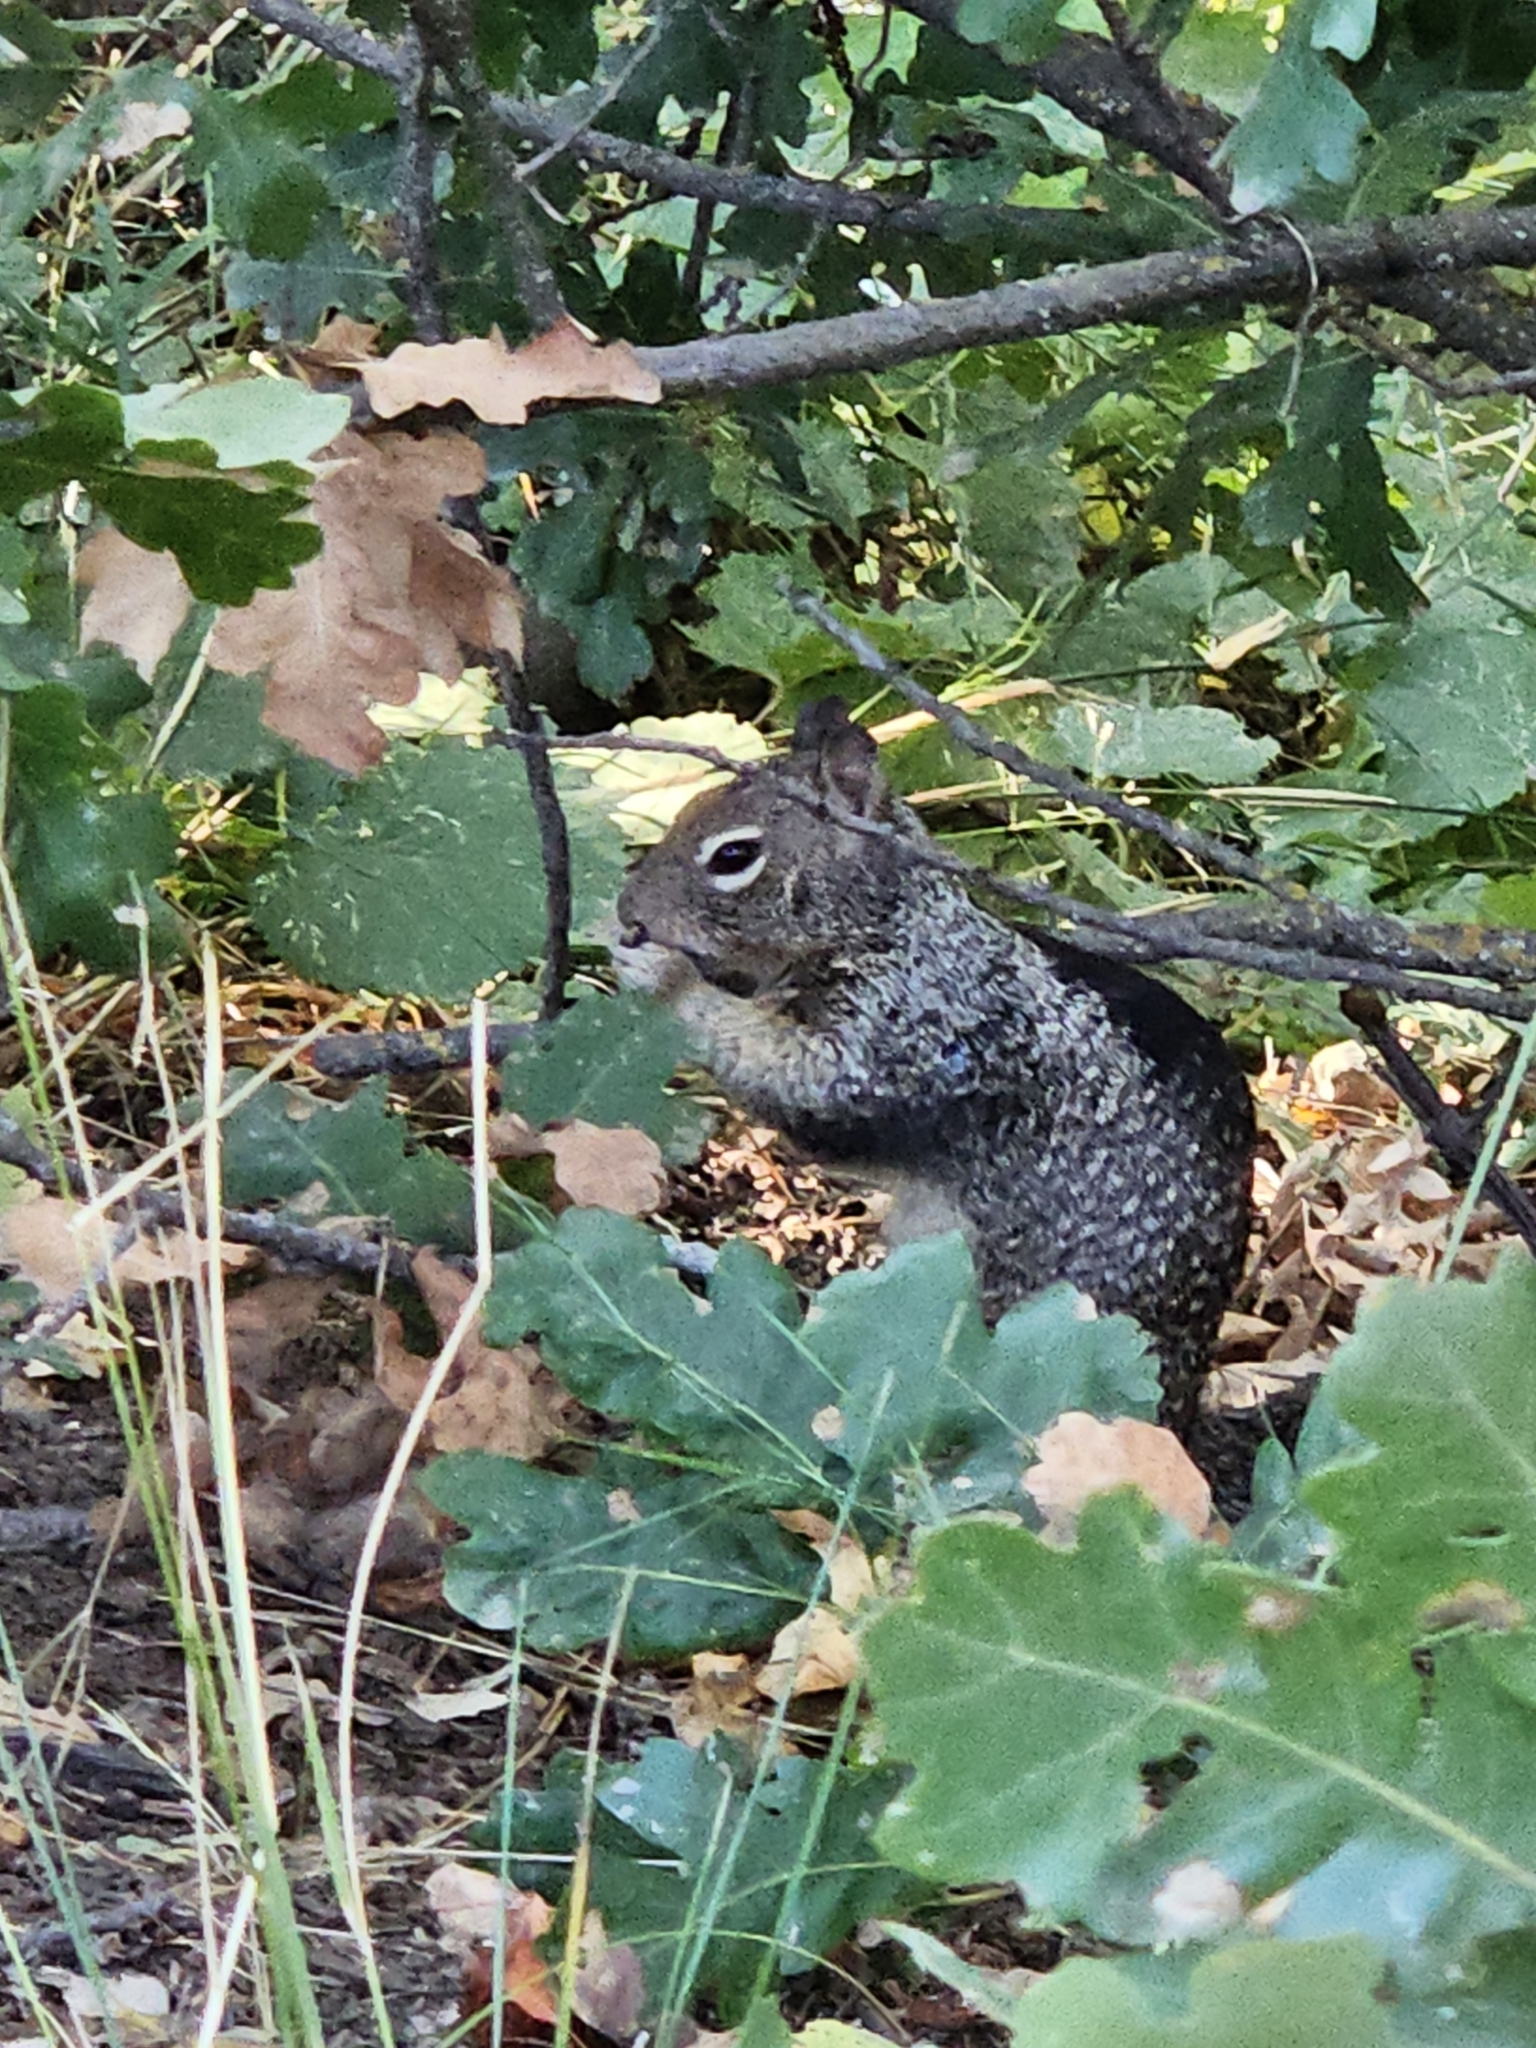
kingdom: Animalia
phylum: Chordata
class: Mammalia
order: Rodentia
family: Sciuridae
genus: Otospermophilus
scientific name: Otospermophilus beecheyi
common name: California ground squirrel
